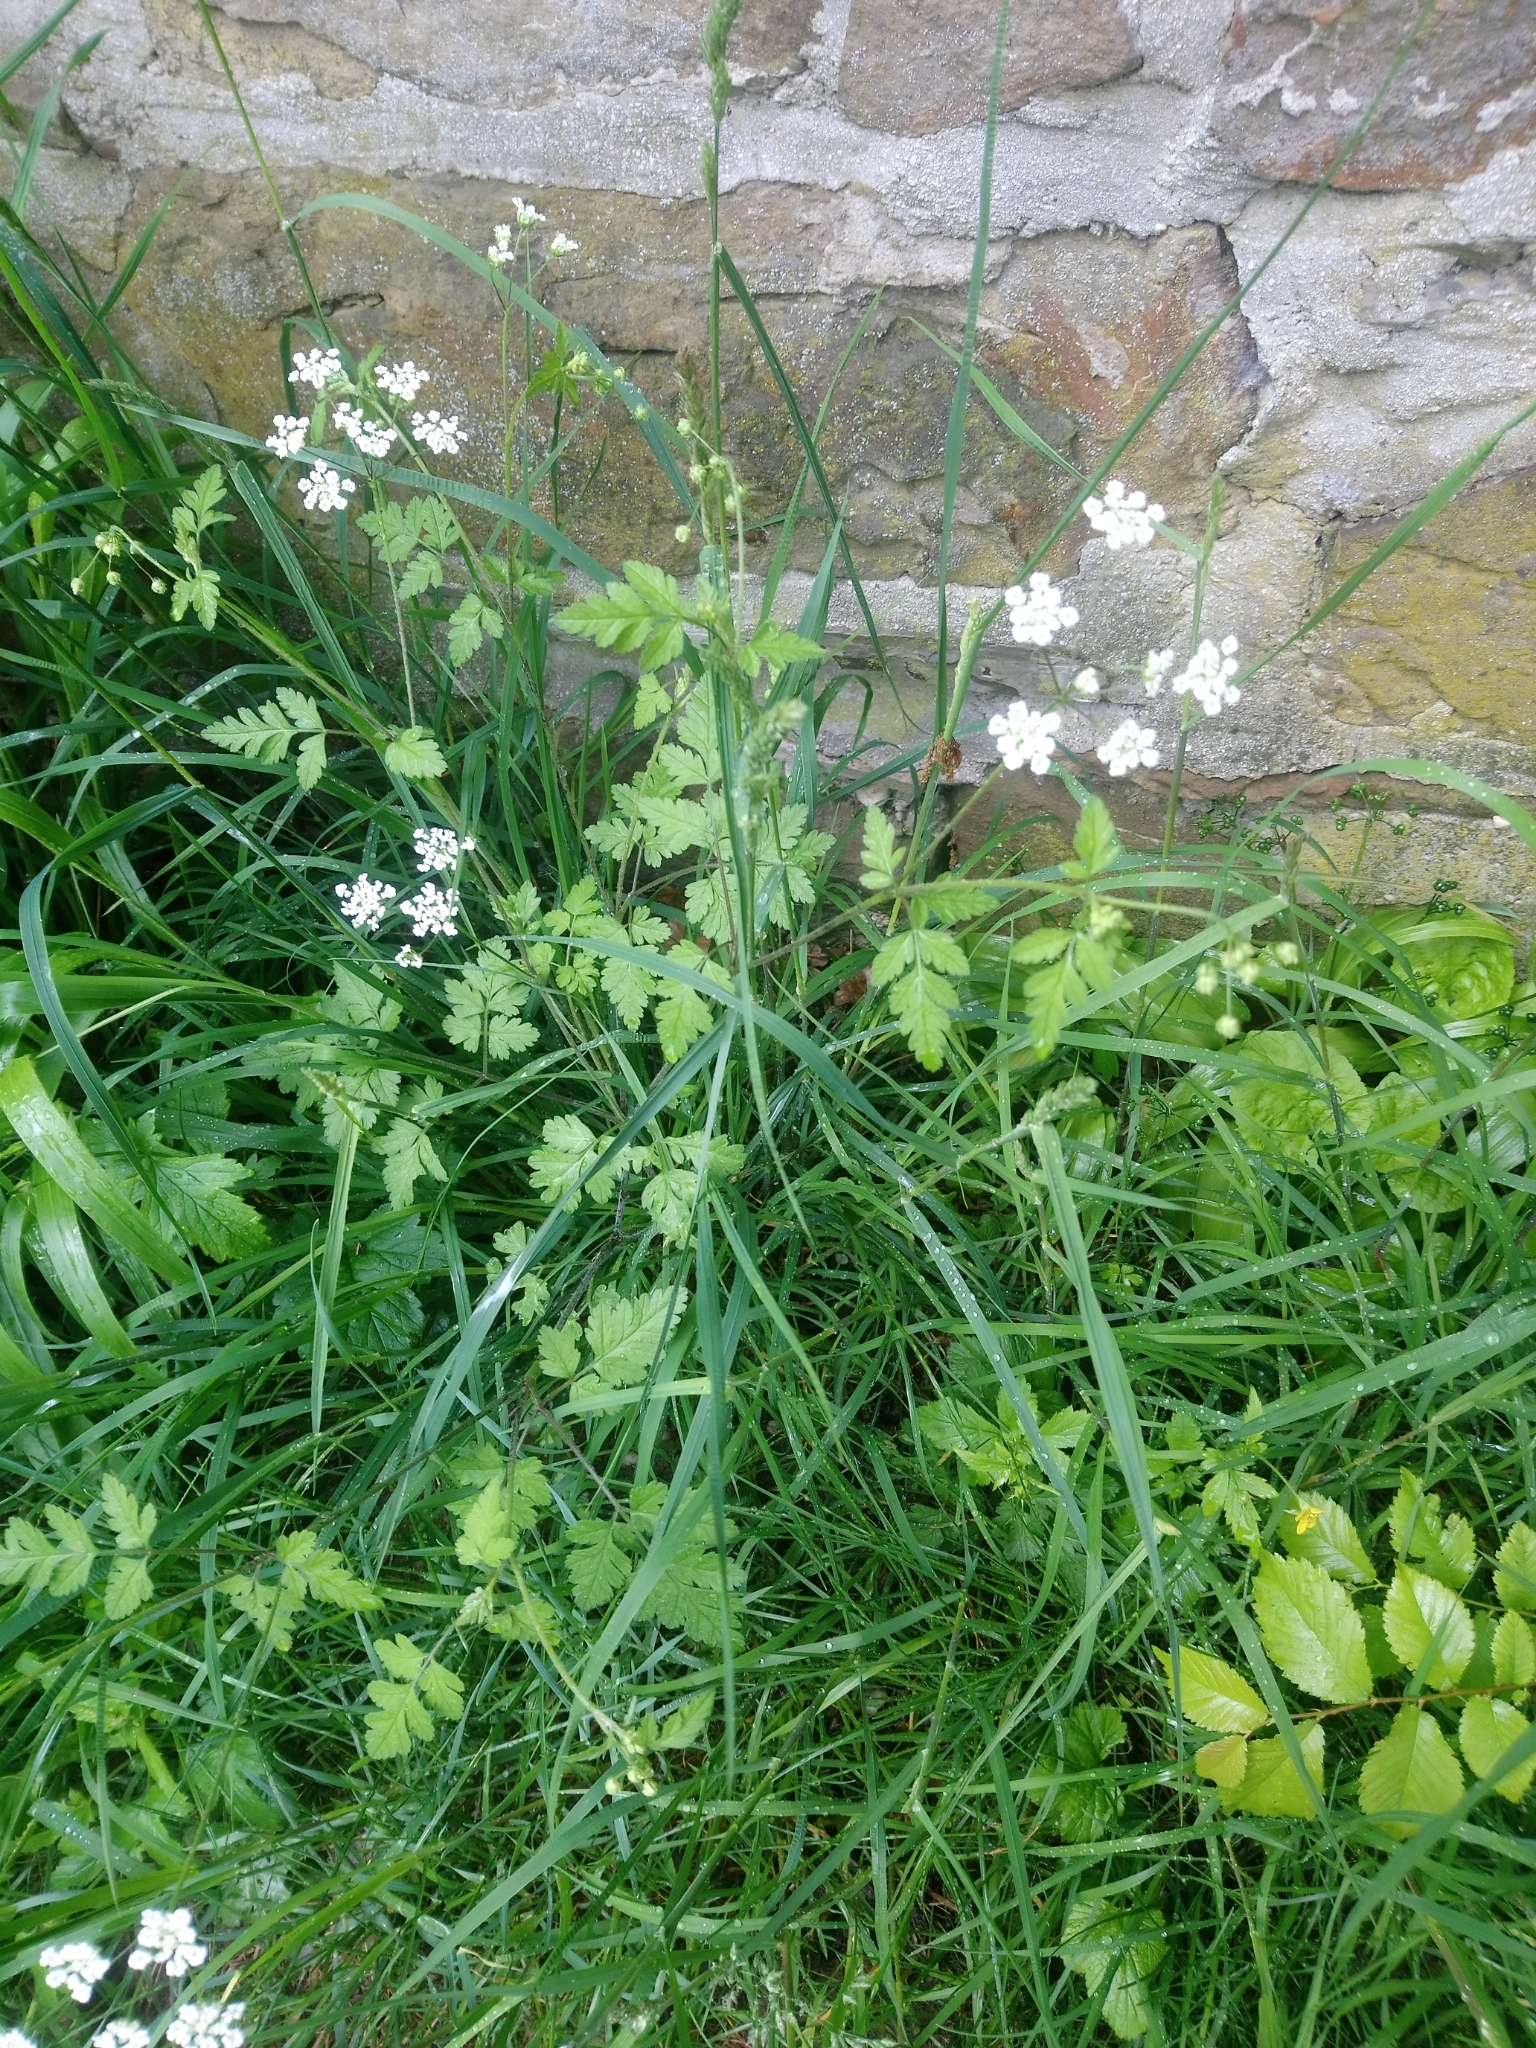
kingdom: Plantae
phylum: Tracheophyta
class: Magnoliopsida
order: Apiales
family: Apiaceae
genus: Chaerophyllum
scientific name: Chaerophyllum temulum
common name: Rough chervil
